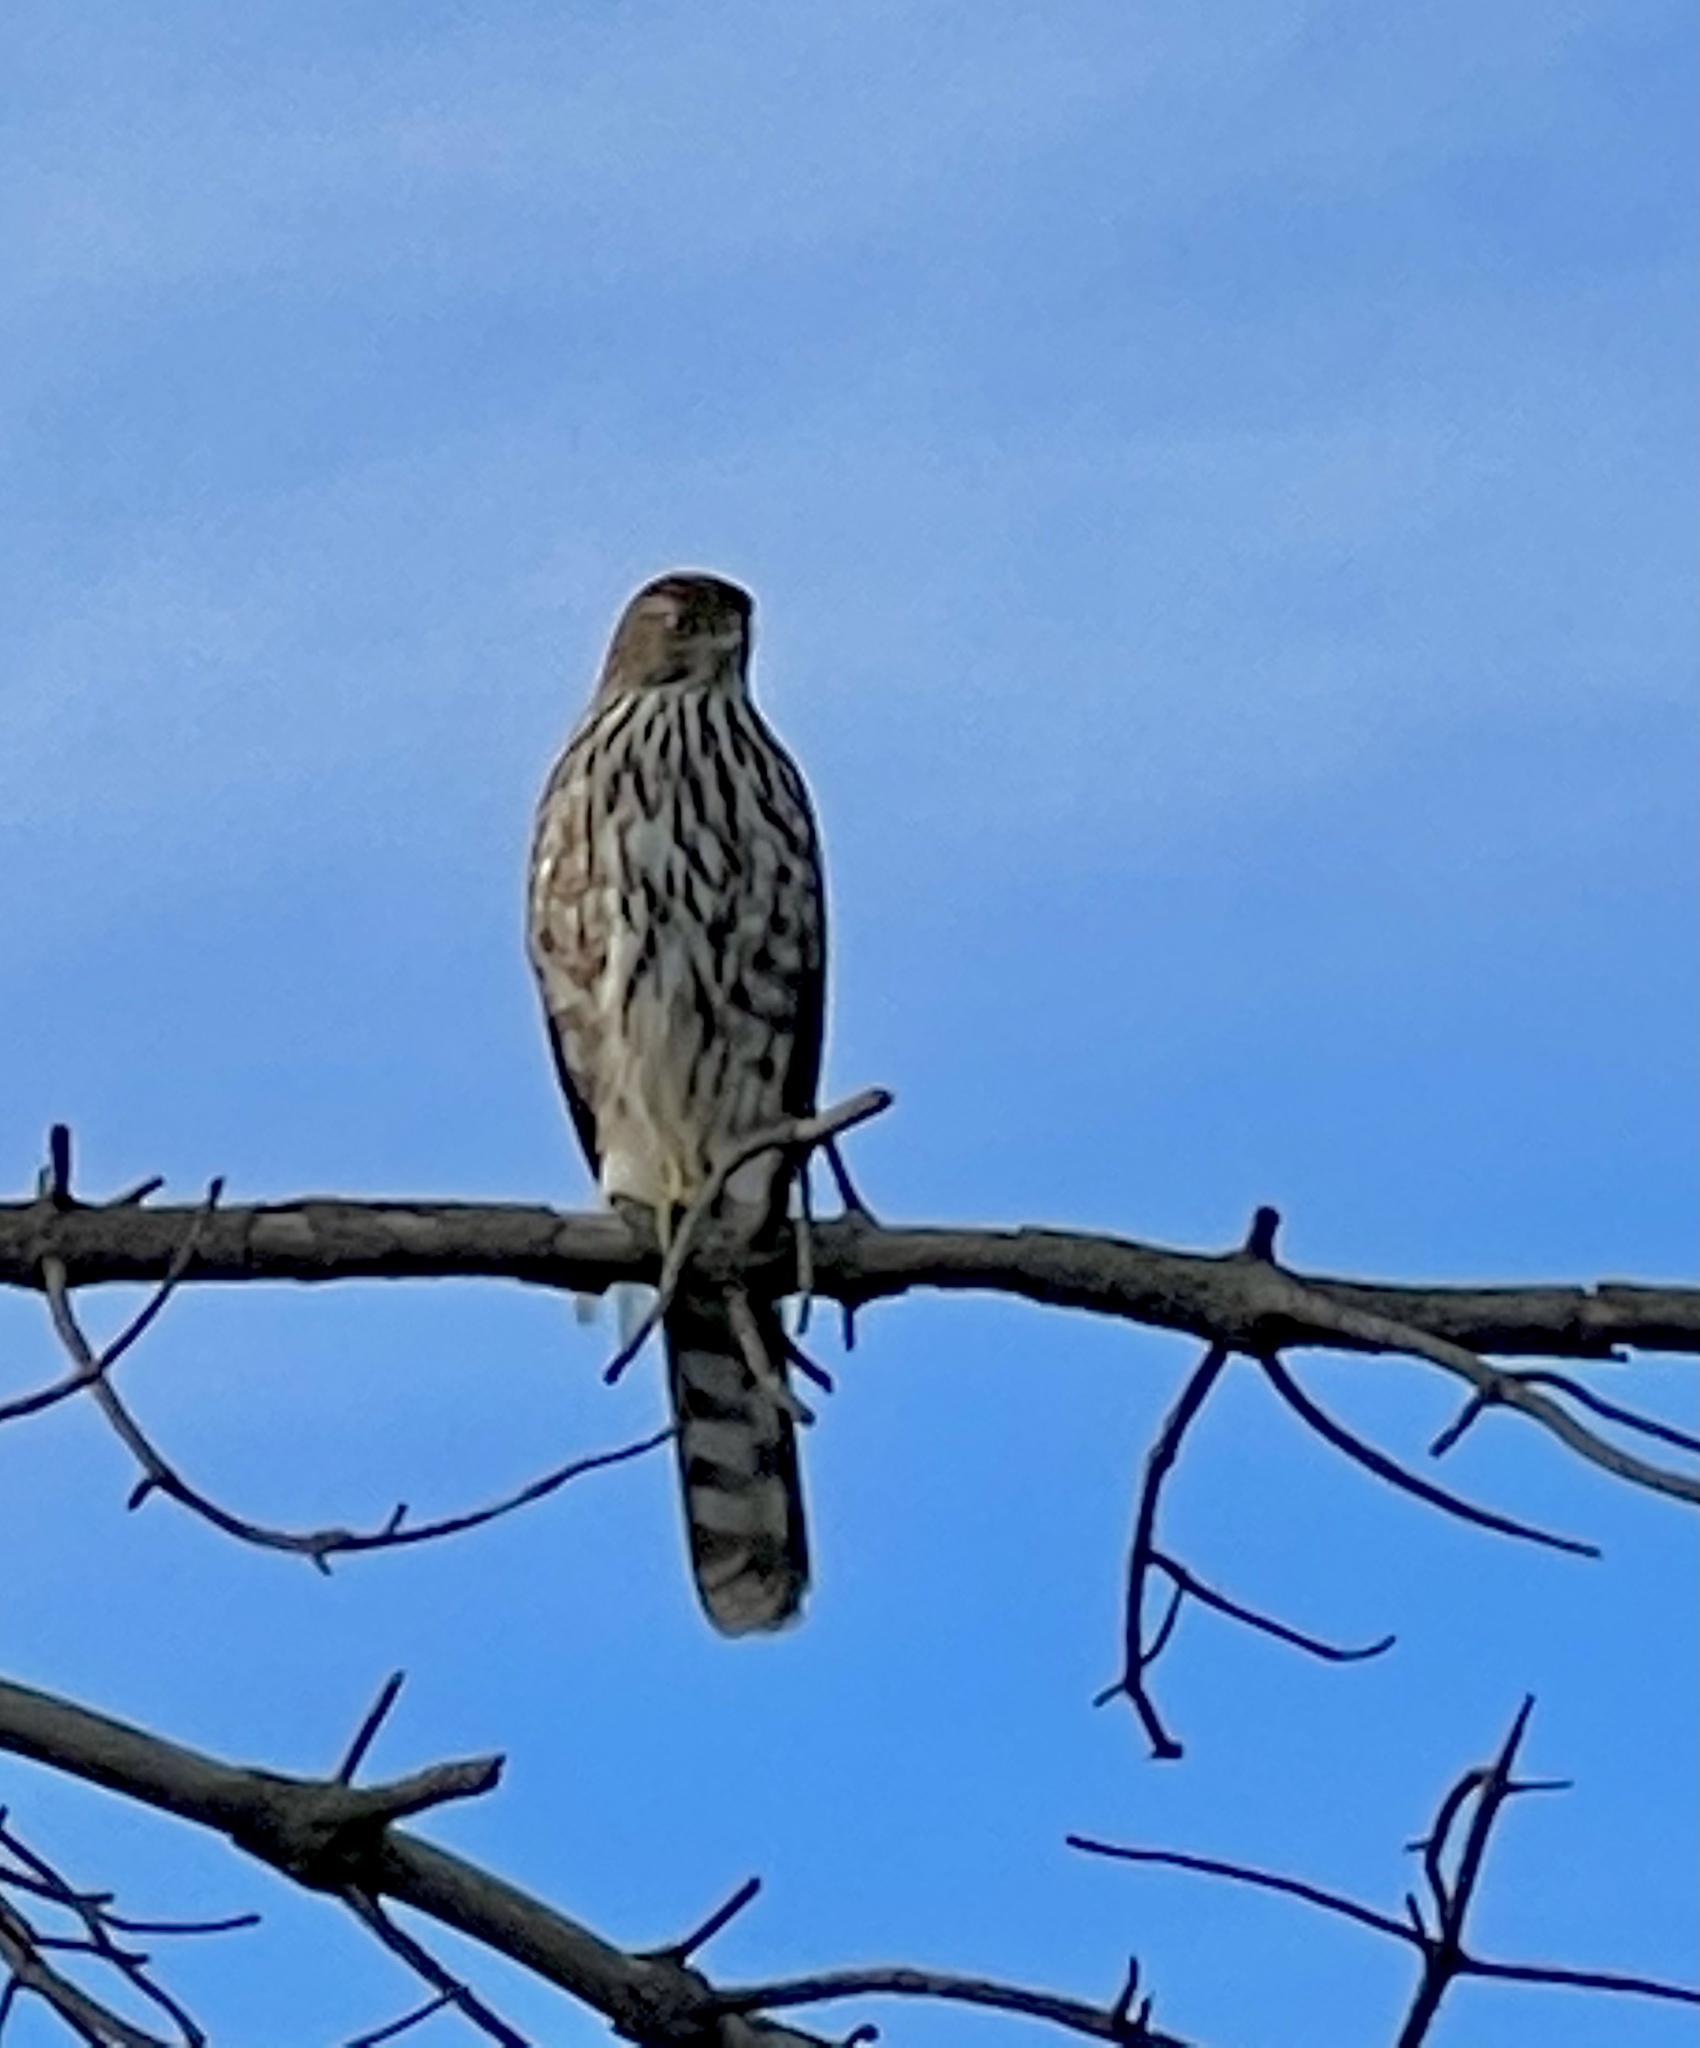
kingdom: Animalia
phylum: Chordata
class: Aves
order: Accipitriformes
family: Accipitridae
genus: Accipiter
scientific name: Accipiter cooperii
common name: Cooper's hawk
